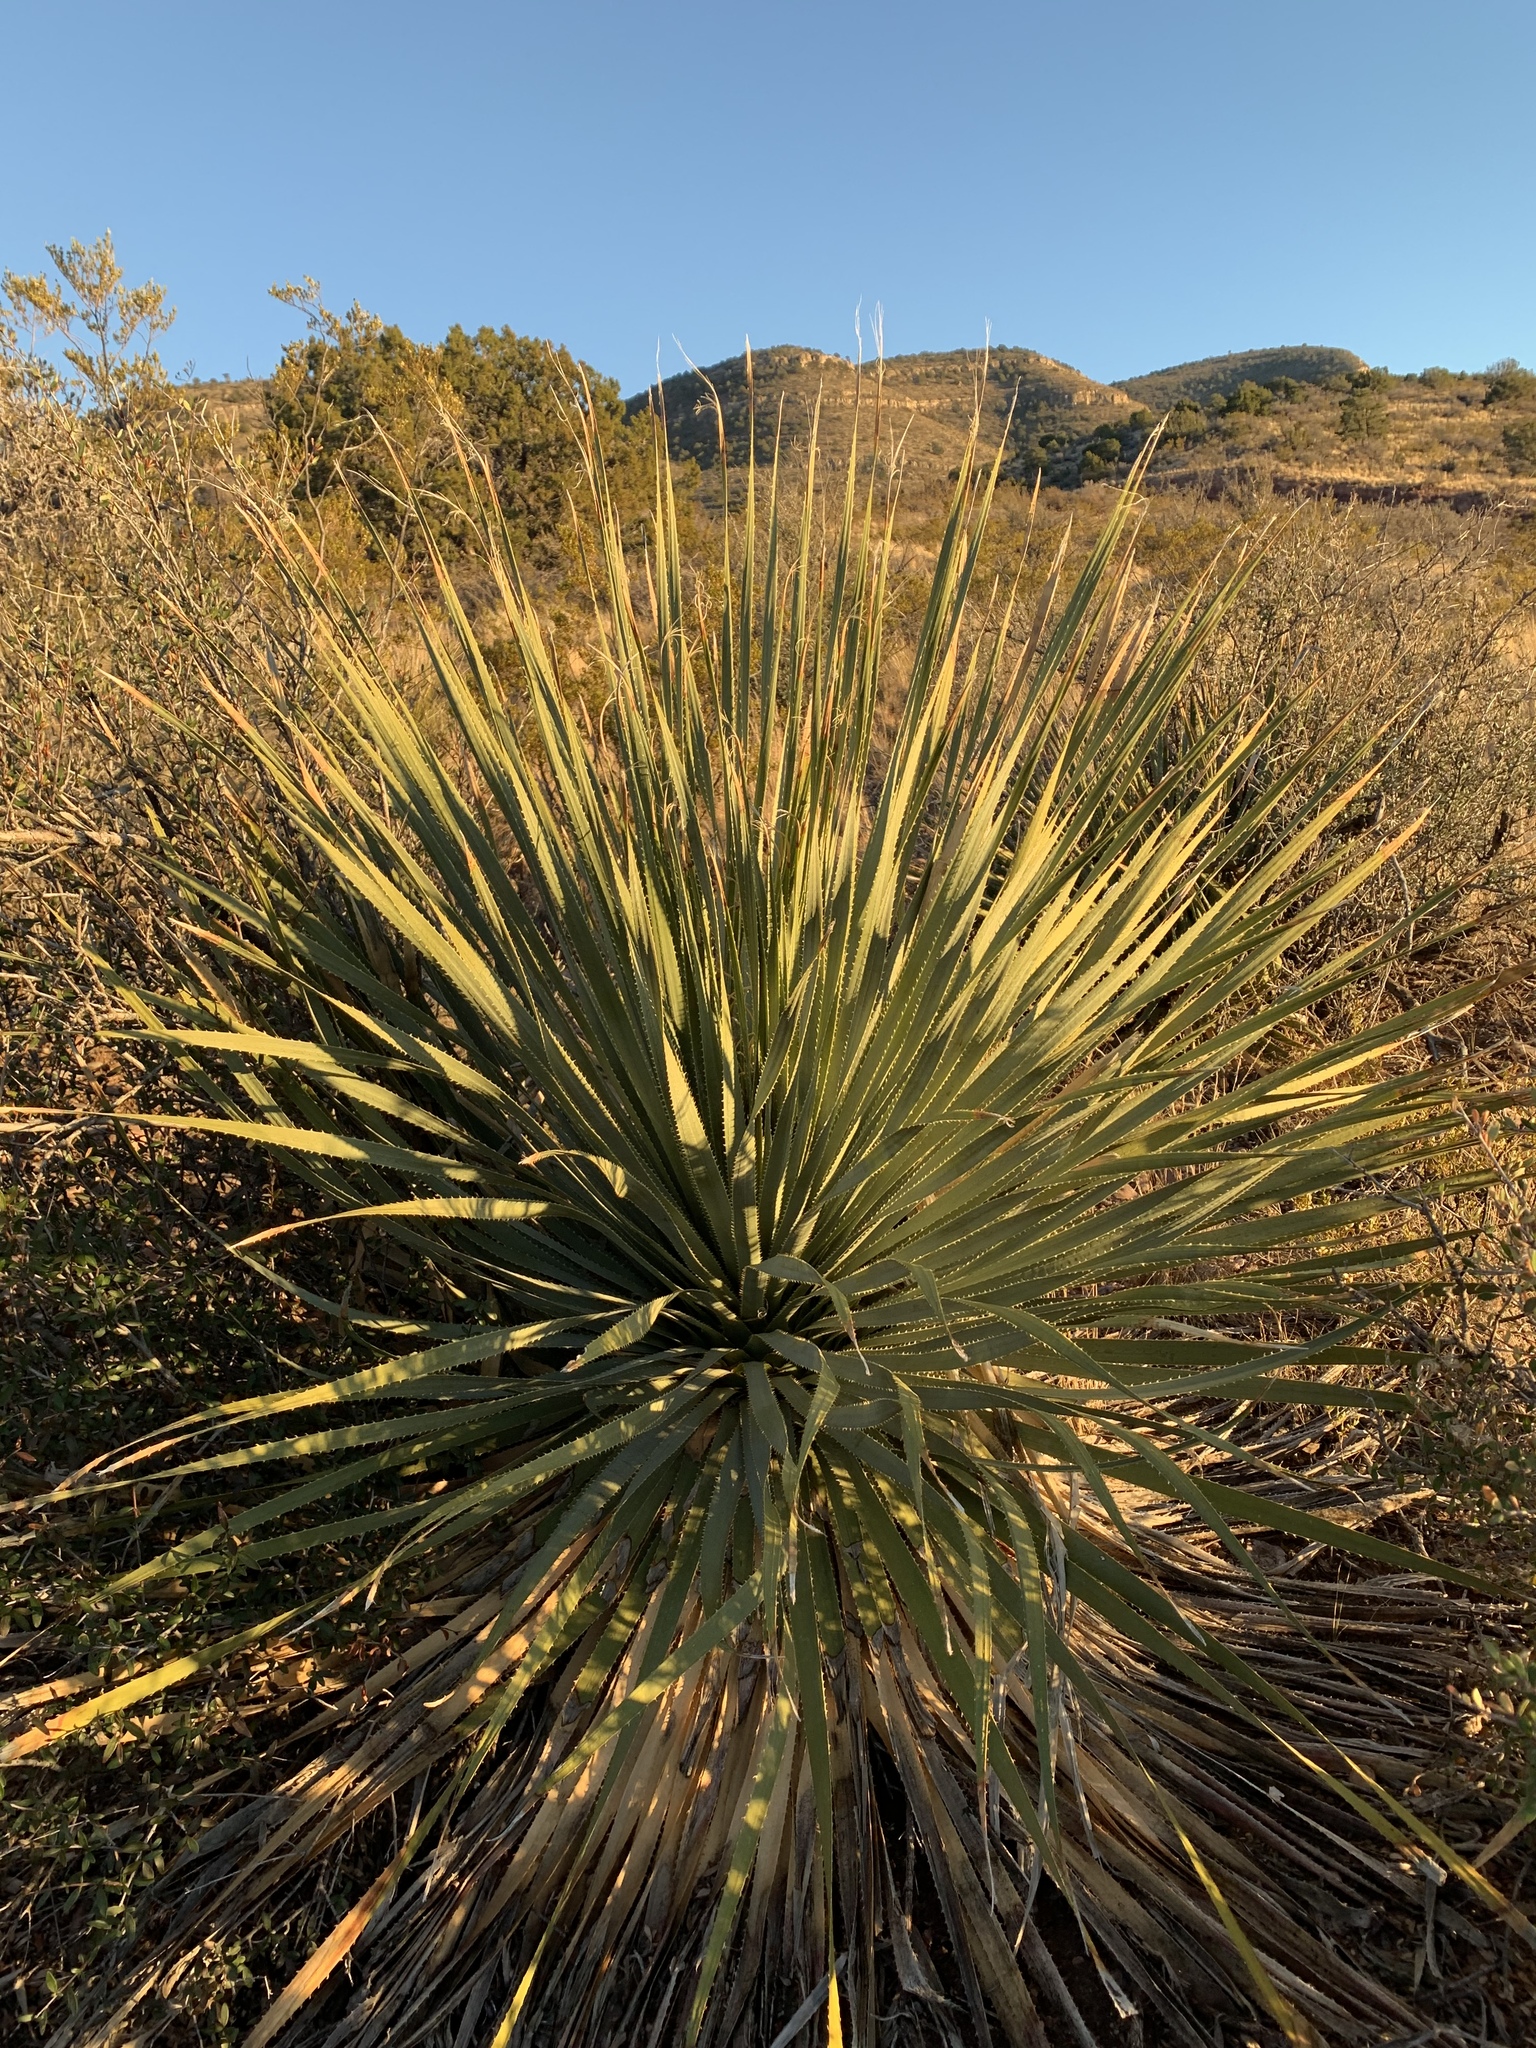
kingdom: Plantae
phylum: Tracheophyta
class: Liliopsida
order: Asparagales
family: Asparagaceae
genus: Dasylirion
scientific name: Dasylirion wheeleri
